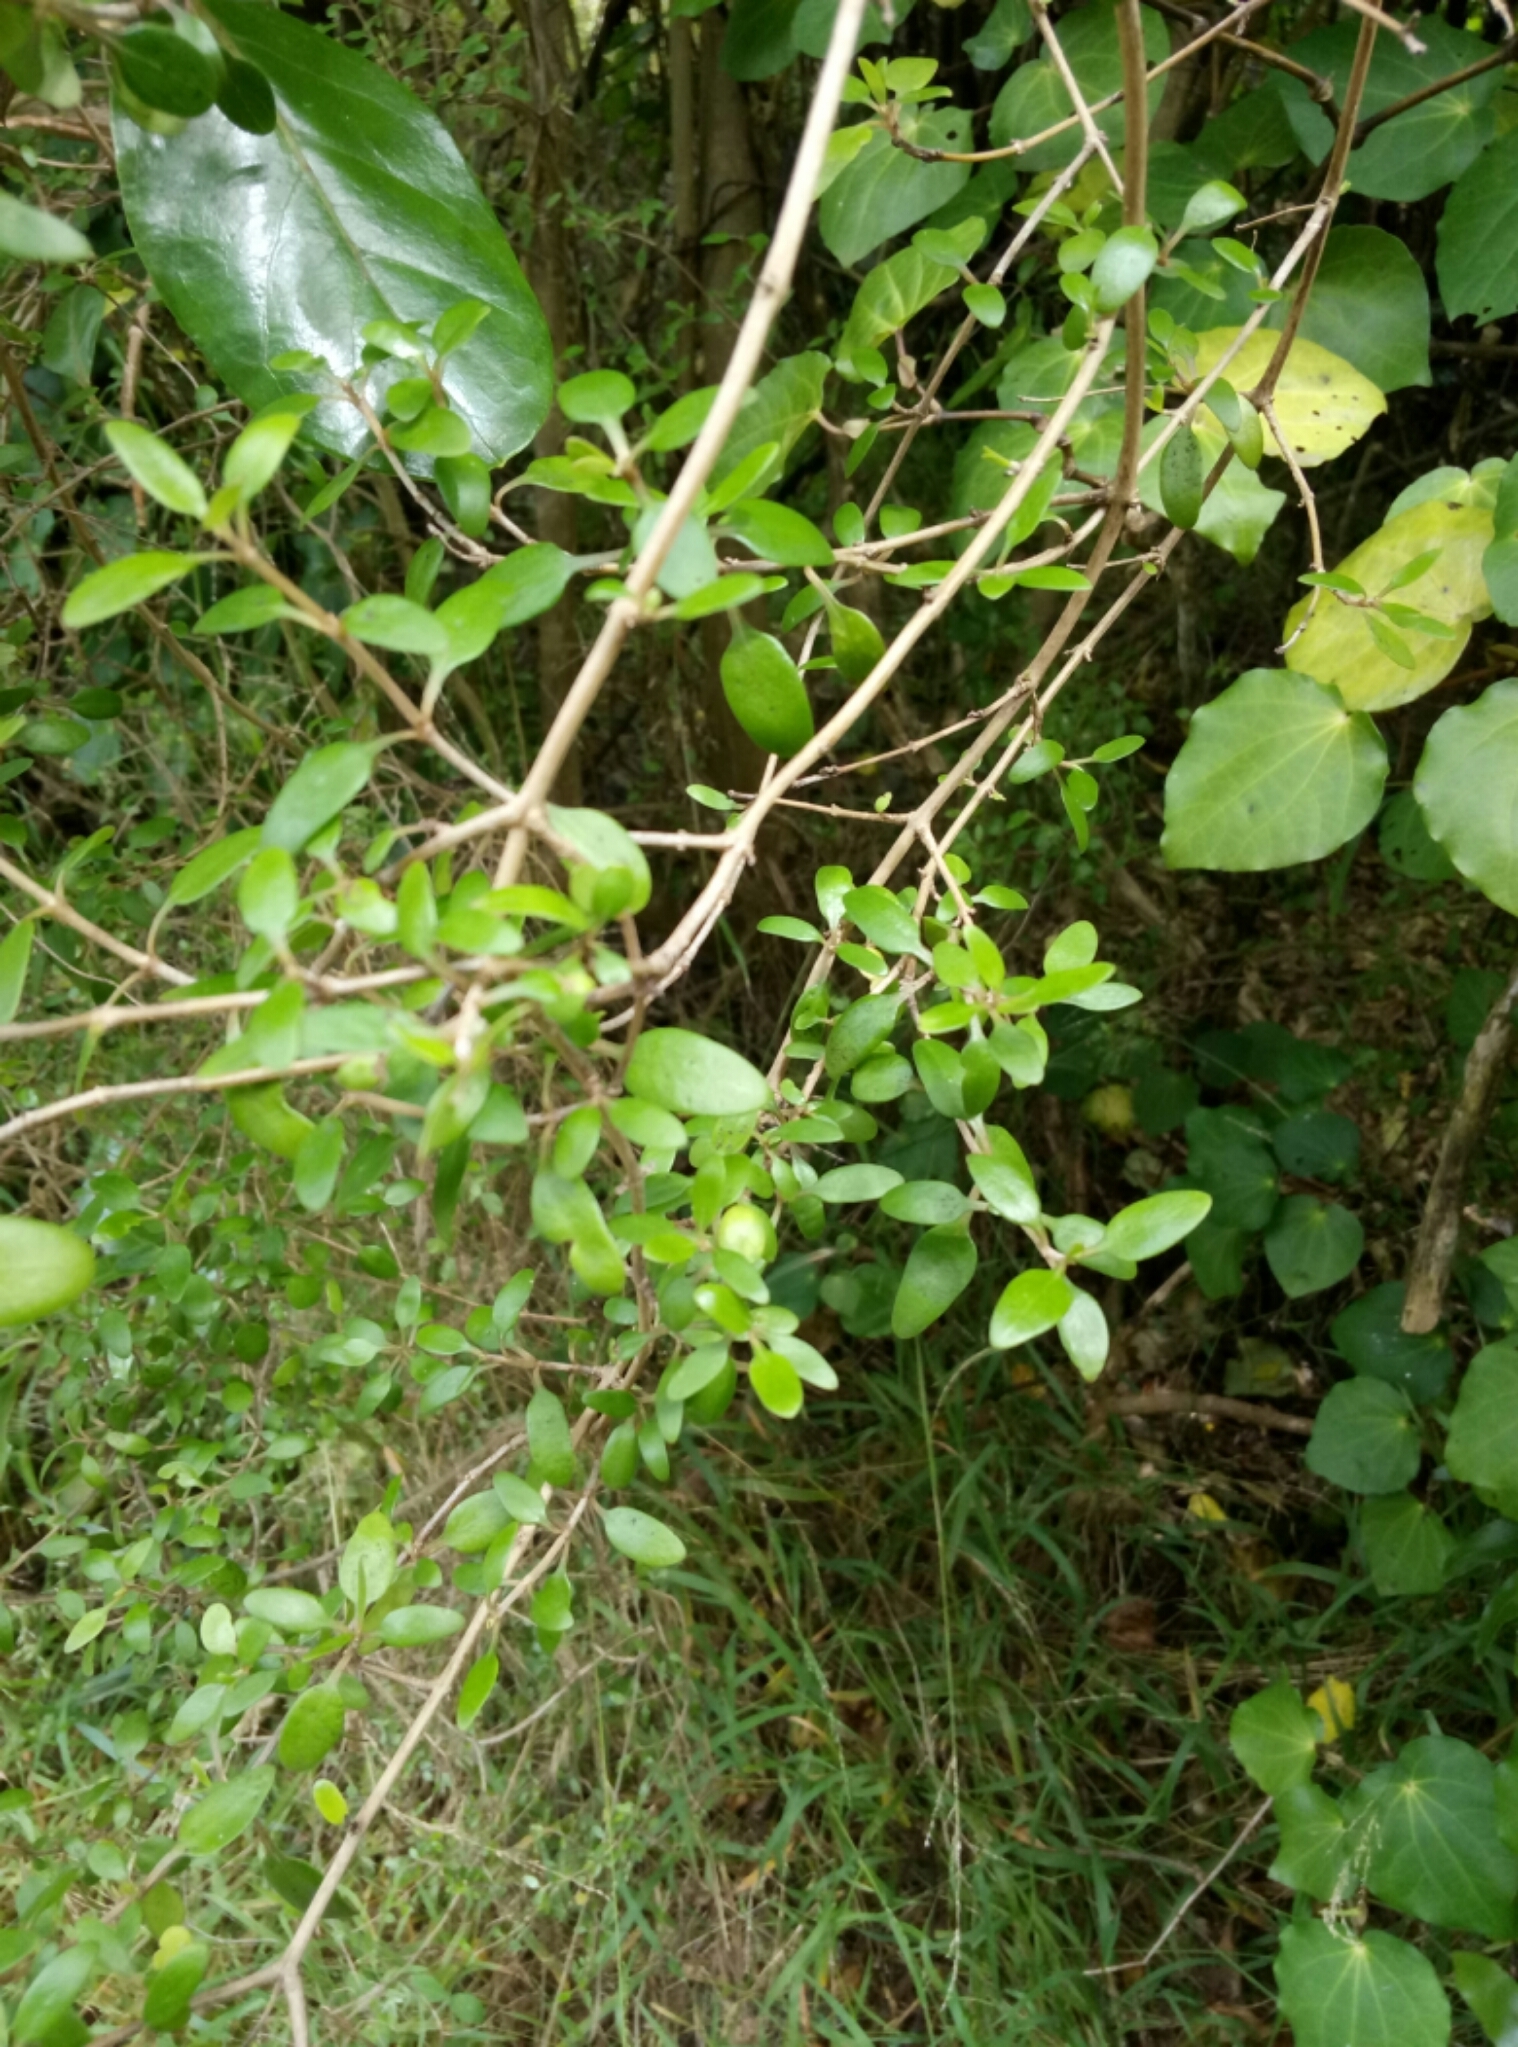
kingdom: Plantae
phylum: Tracheophyta
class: Magnoliopsida
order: Gentianales
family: Rubiaceae
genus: Coprosma
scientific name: Coprosma propinqua
